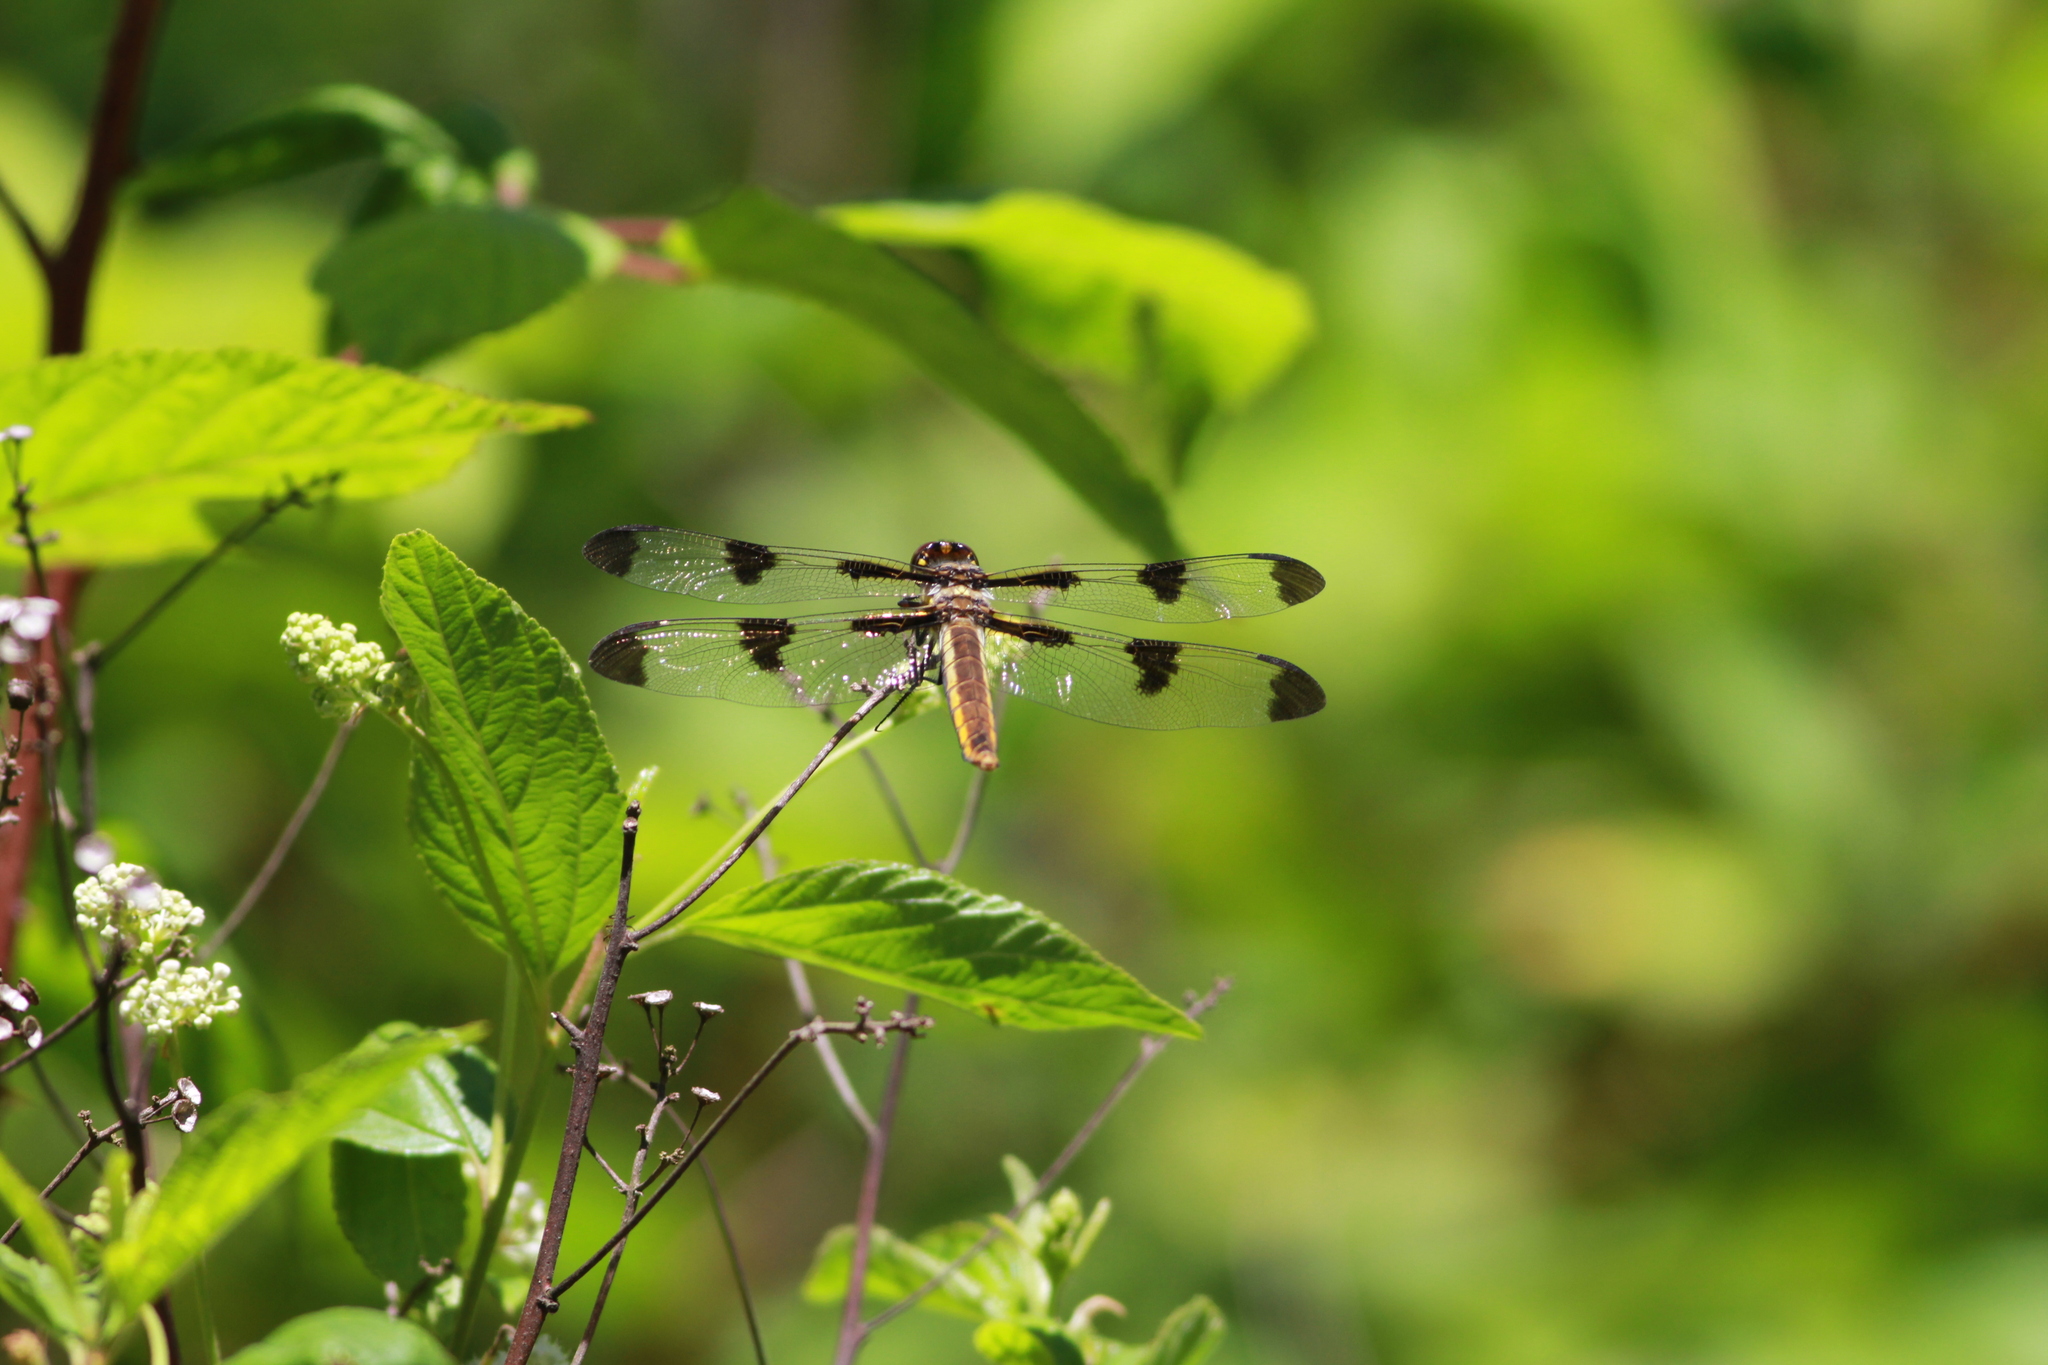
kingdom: Animalia
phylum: Arthropoda
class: Insecta
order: Odonata
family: Libellulidae
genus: Libellula
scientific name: Libellula pulchella
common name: Twelve-spotted skimmer
